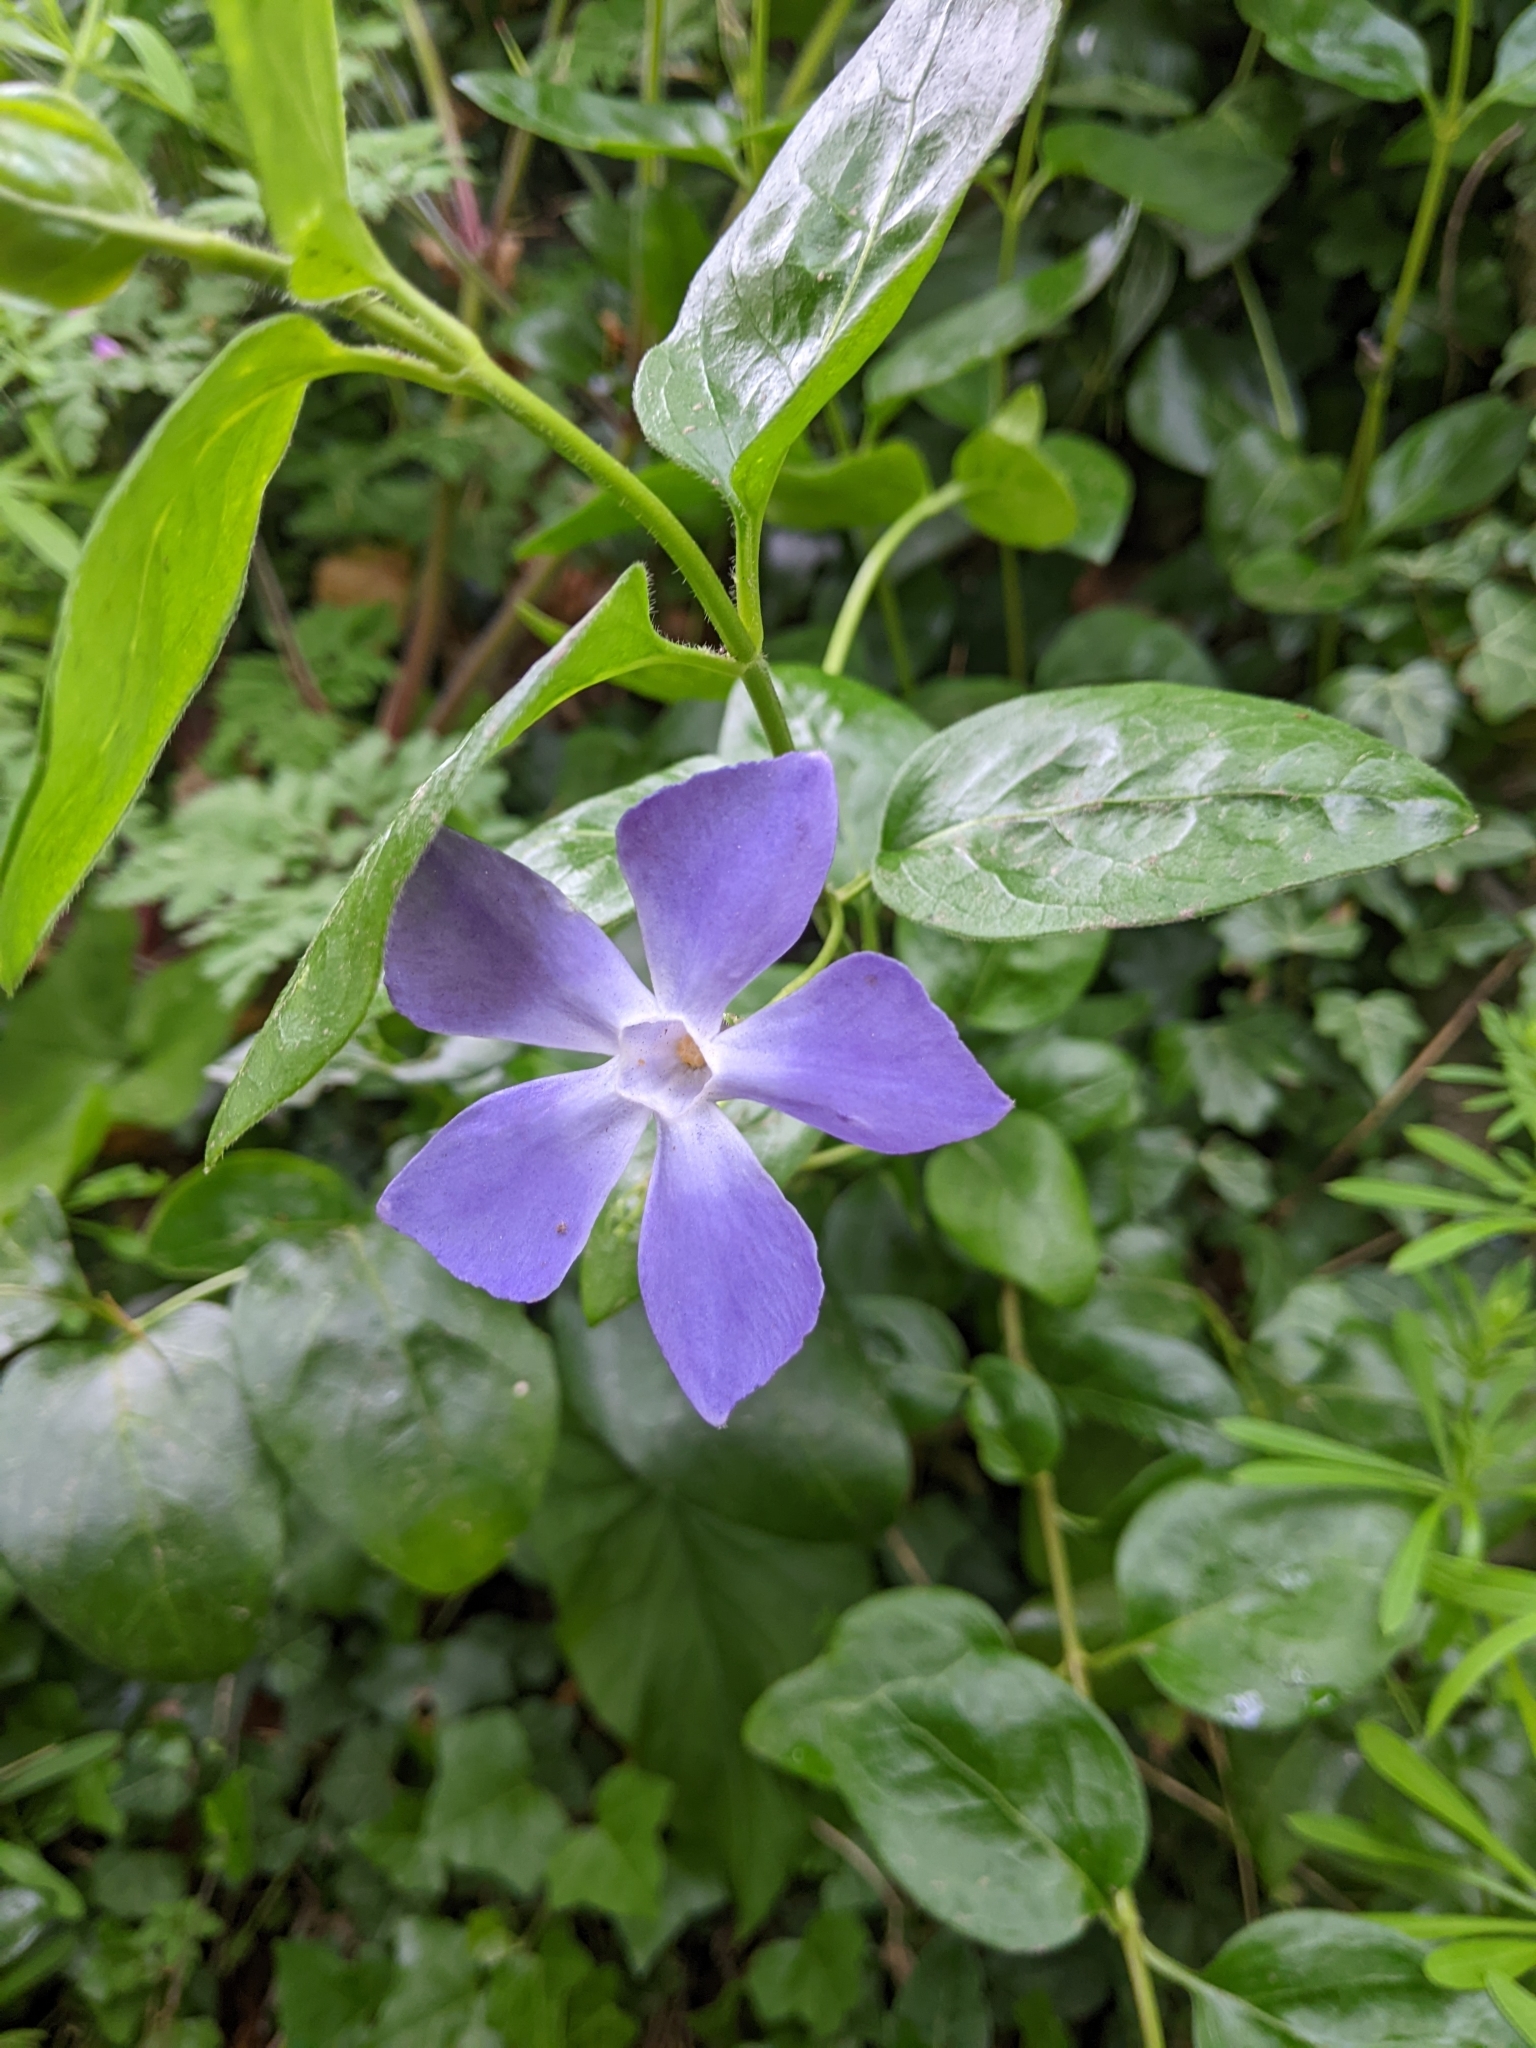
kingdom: Plantae
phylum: Tracheophyta
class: Magnoliopsida
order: Gentianales
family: Apocynaceae
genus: Vinca
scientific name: Vinca major
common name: Greater periwinkle
